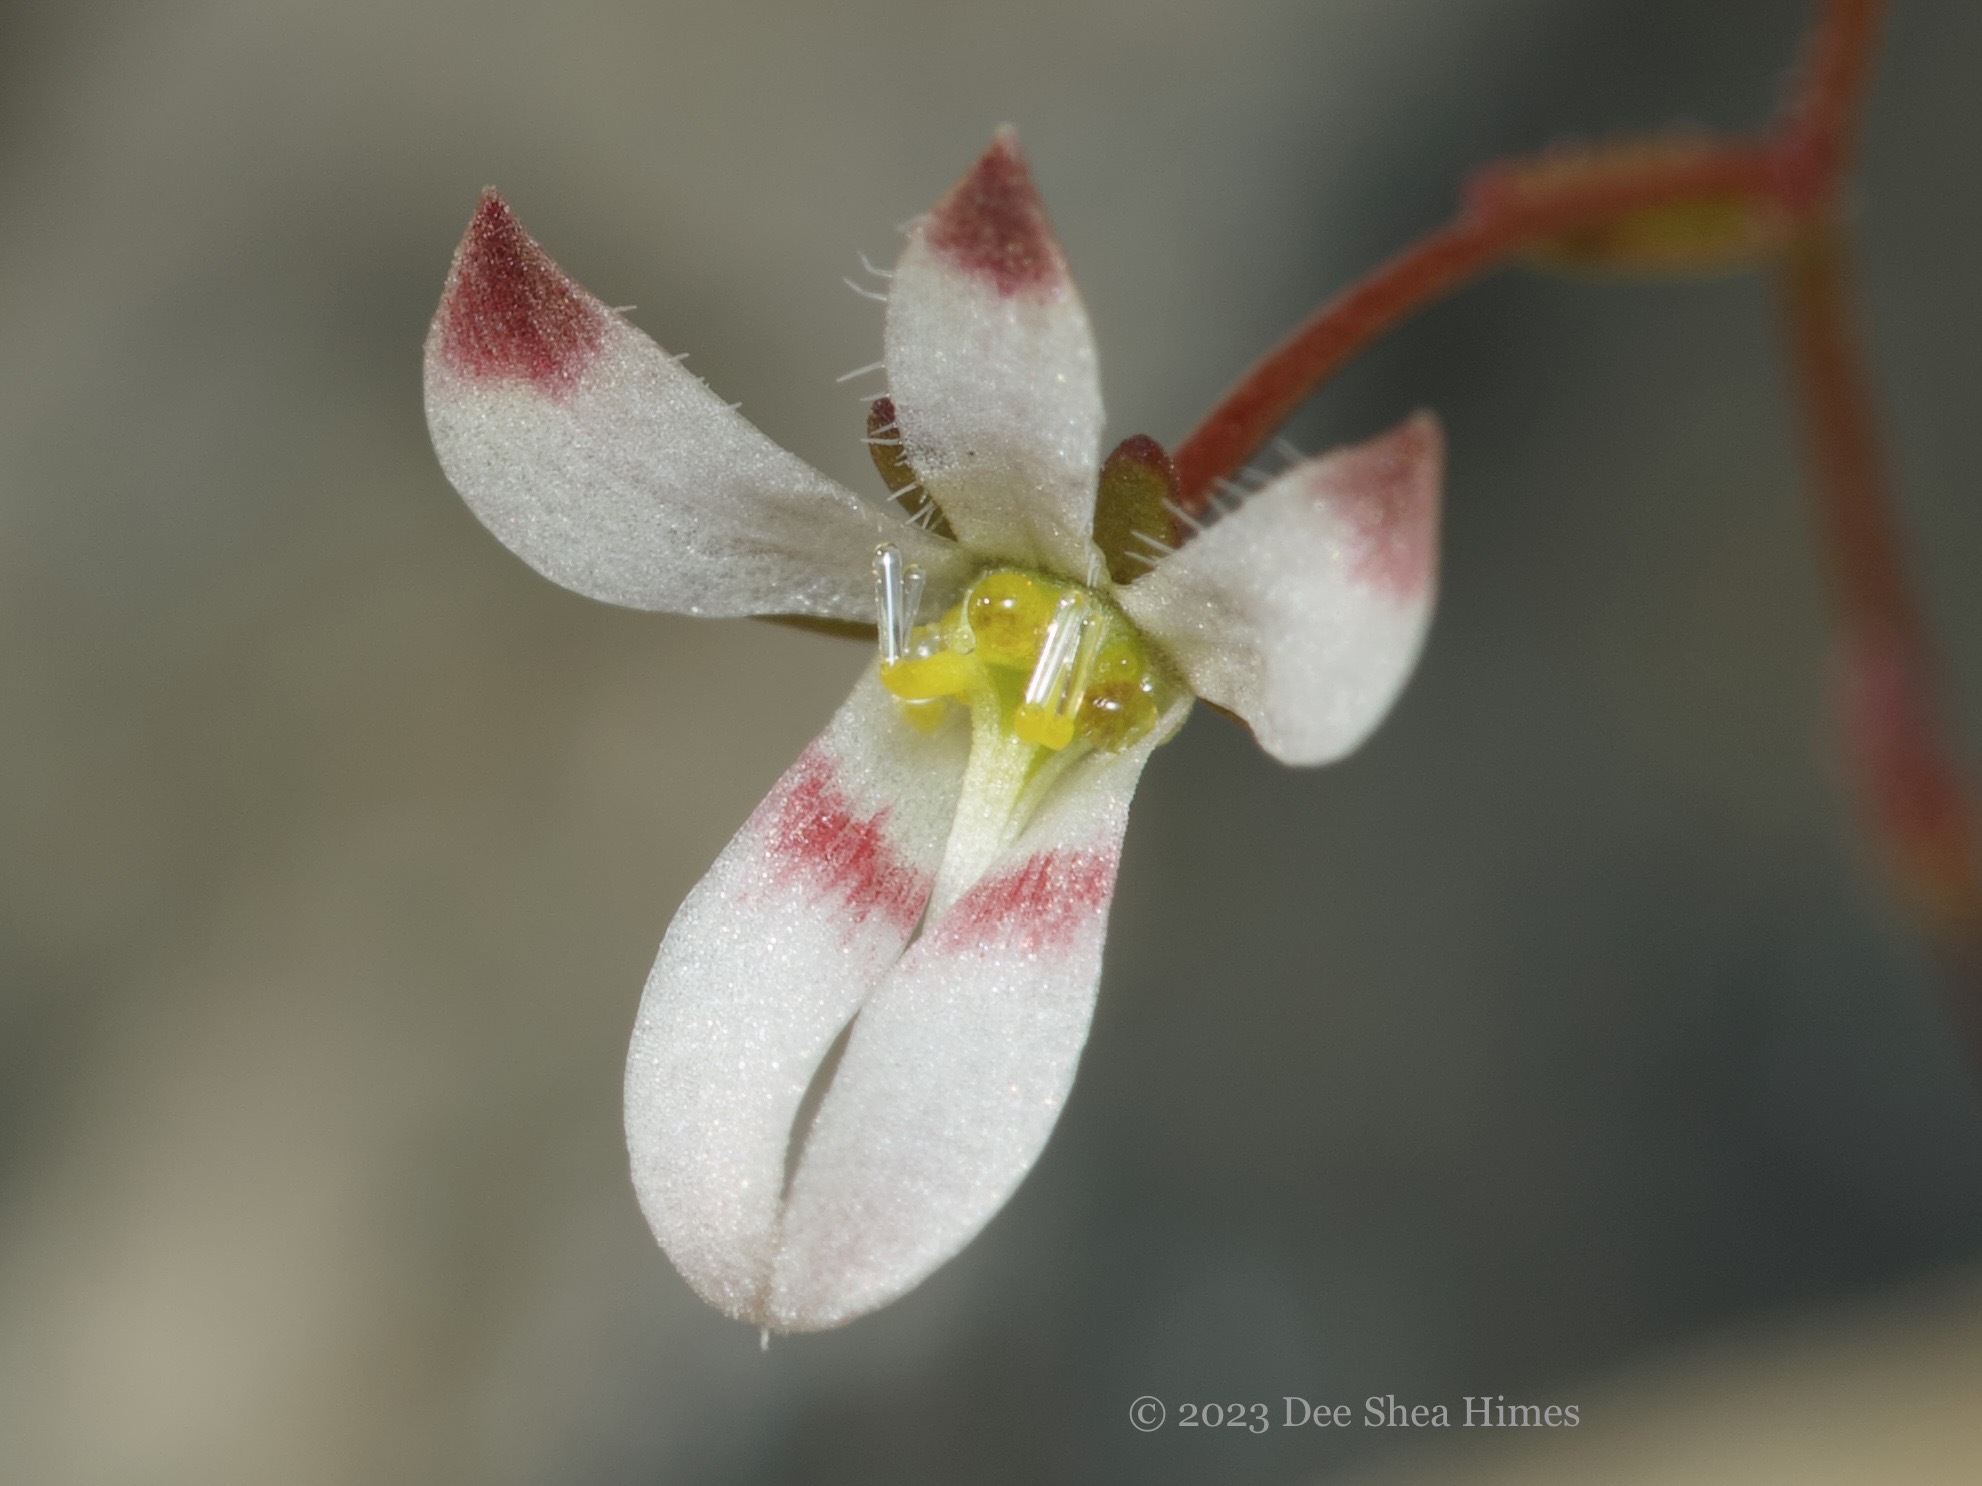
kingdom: Plantae
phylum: Tracheophyta
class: Magnoliopsida
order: Asterales
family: Campanulaceae
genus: Nemacladus
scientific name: Nemacladus orientalis
